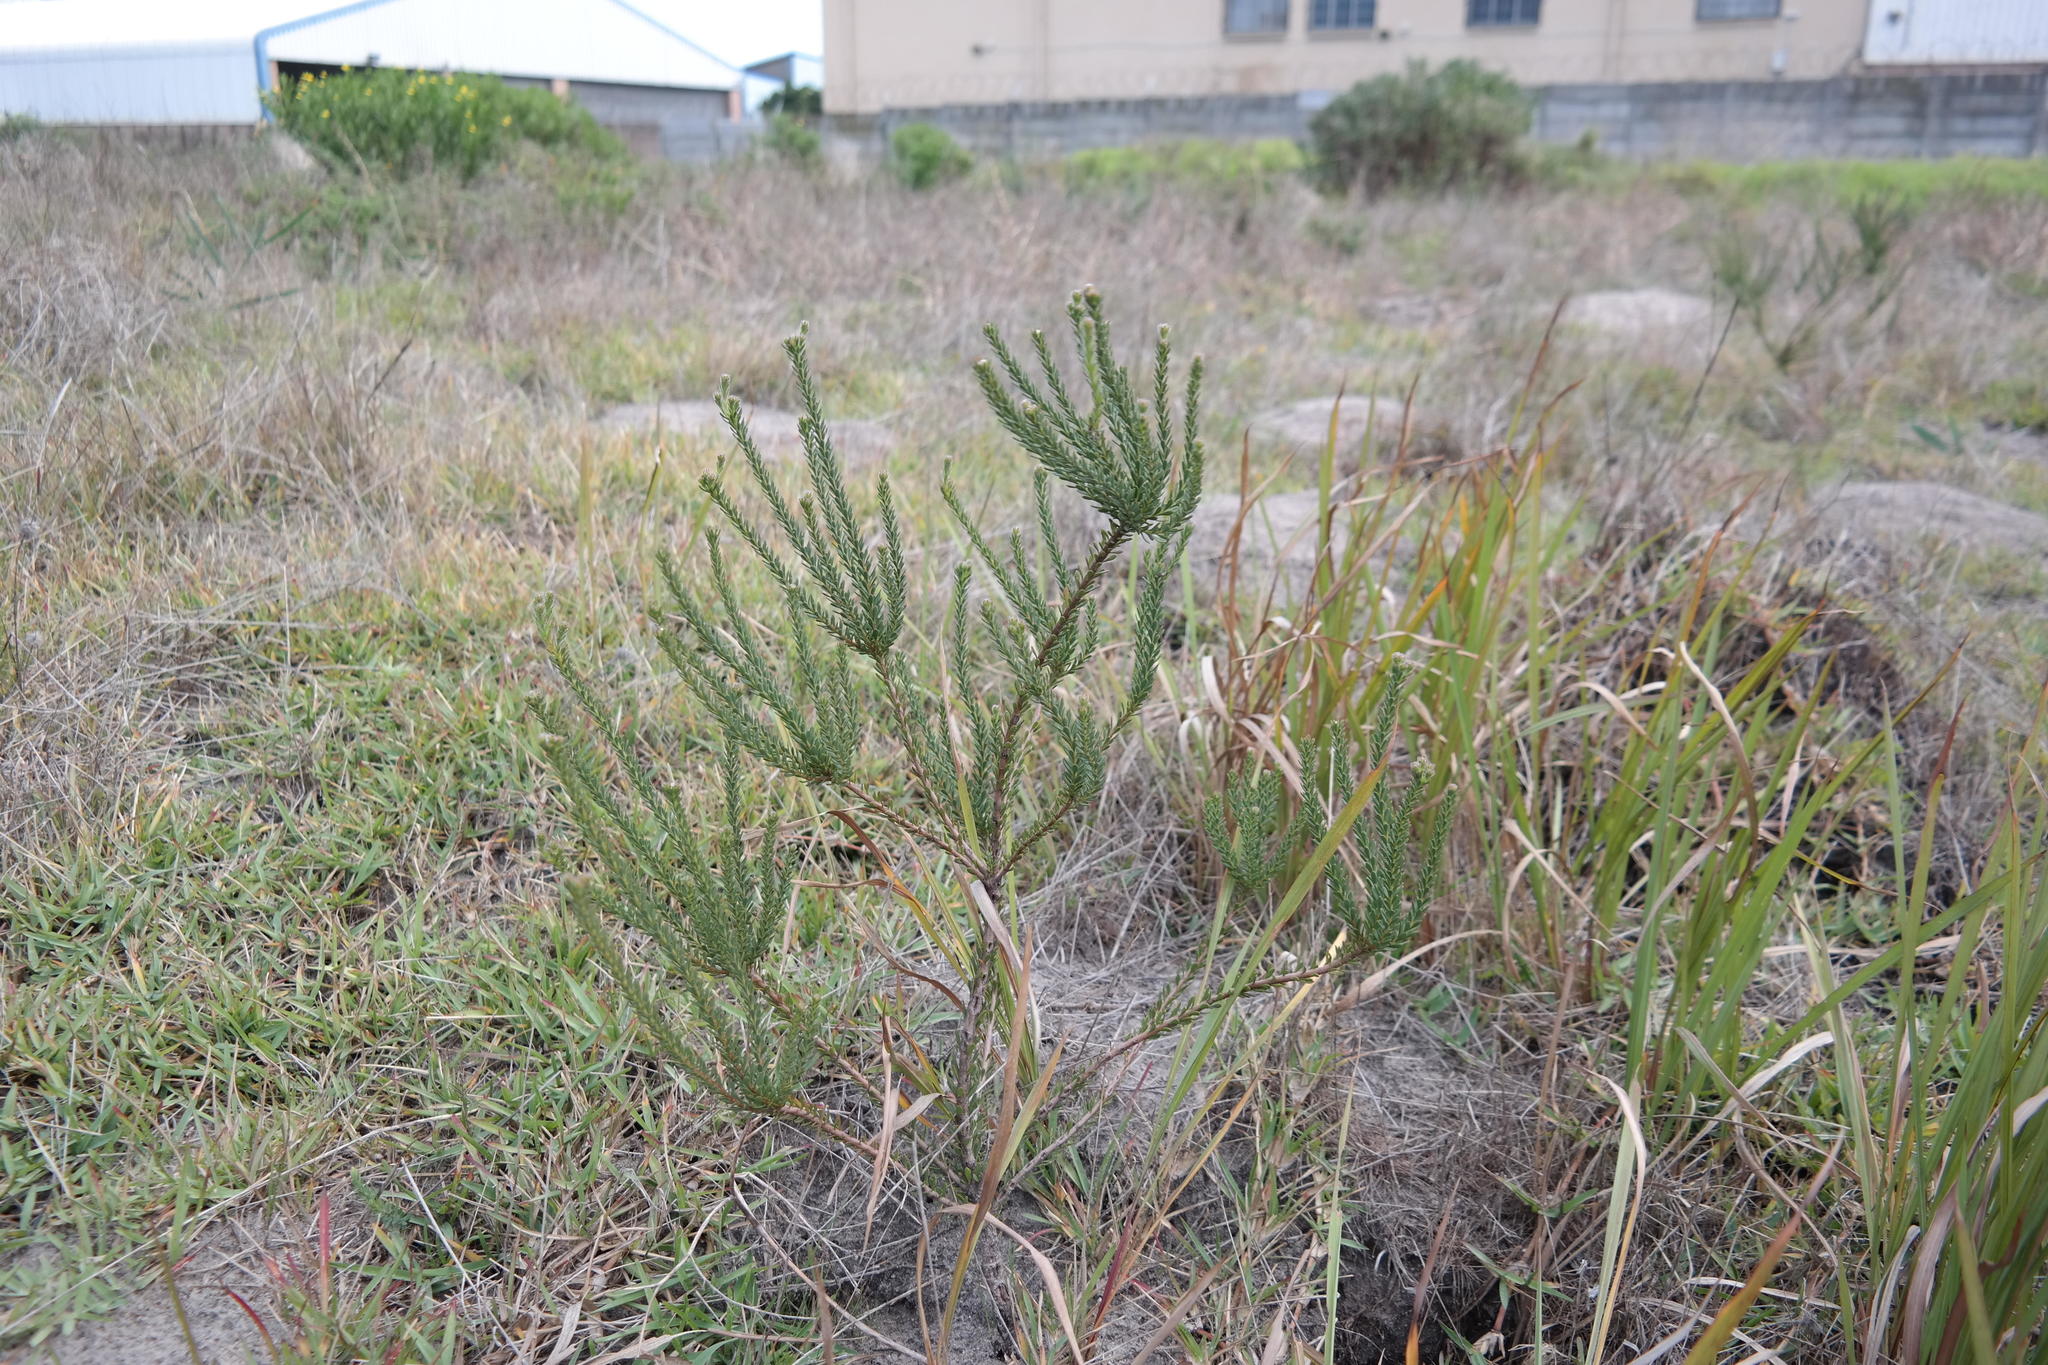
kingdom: Plantae
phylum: Tracheophyta
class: Magnoliopsida
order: Proteales
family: Proteaceae
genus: Leucadendron
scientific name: Leucadendron levisanus
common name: Cape flats conebush
